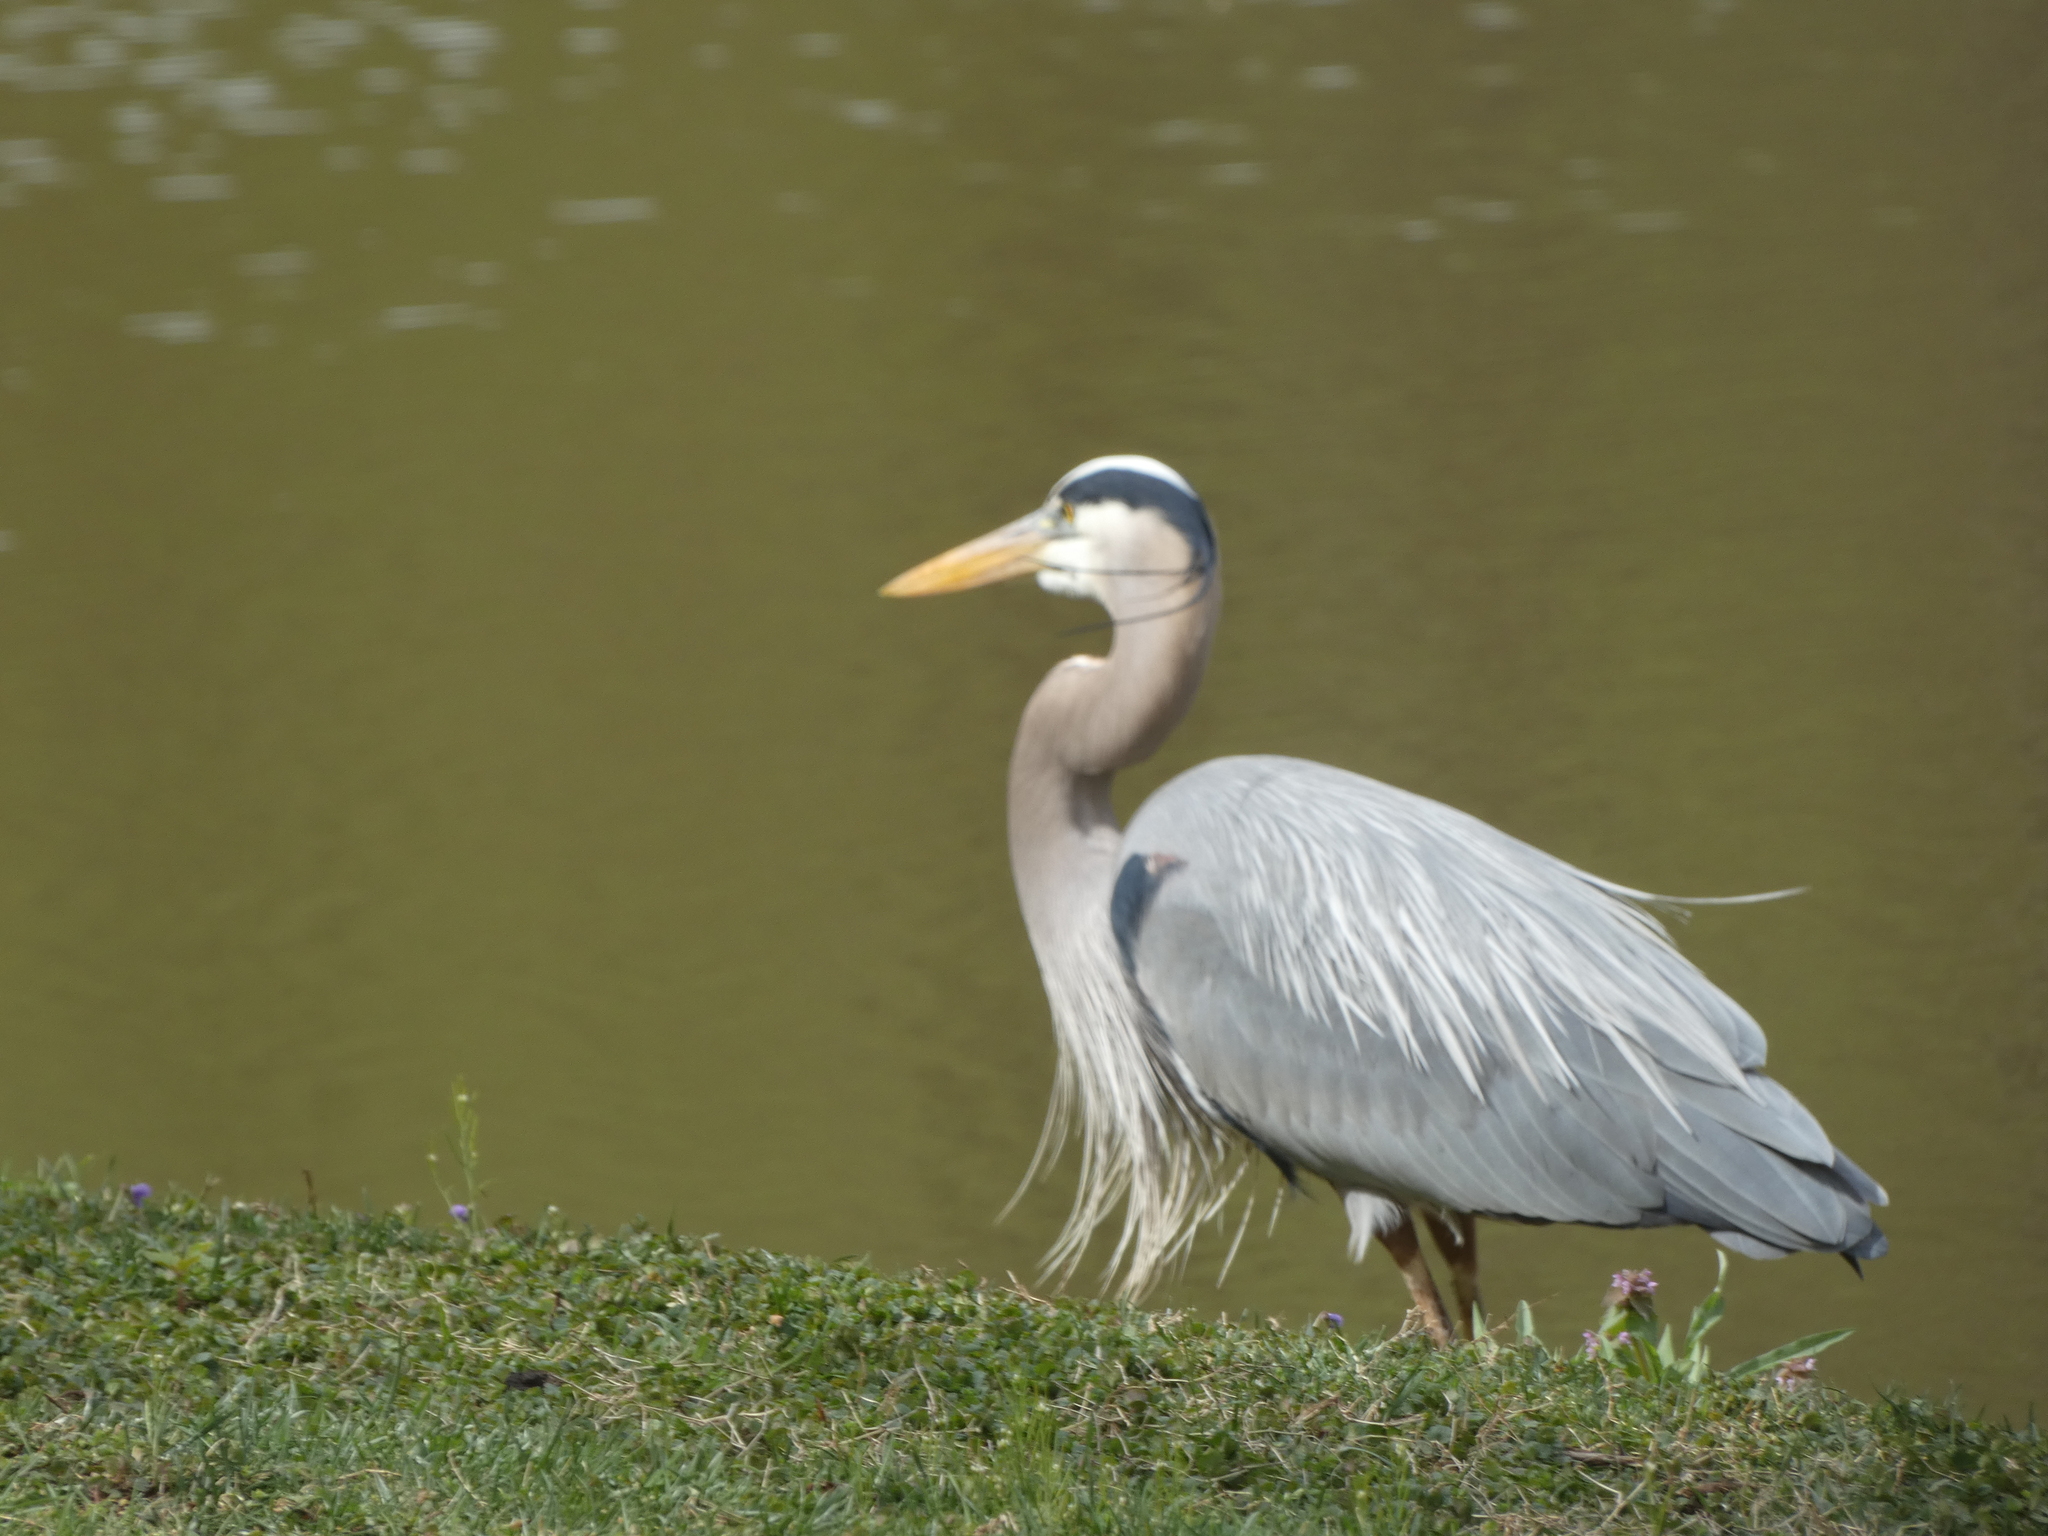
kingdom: Animalia
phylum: Chordata
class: Aves
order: Pelecaniformes
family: Ardeidae
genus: Ardea
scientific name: Ardea herodias
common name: Great blue heron
